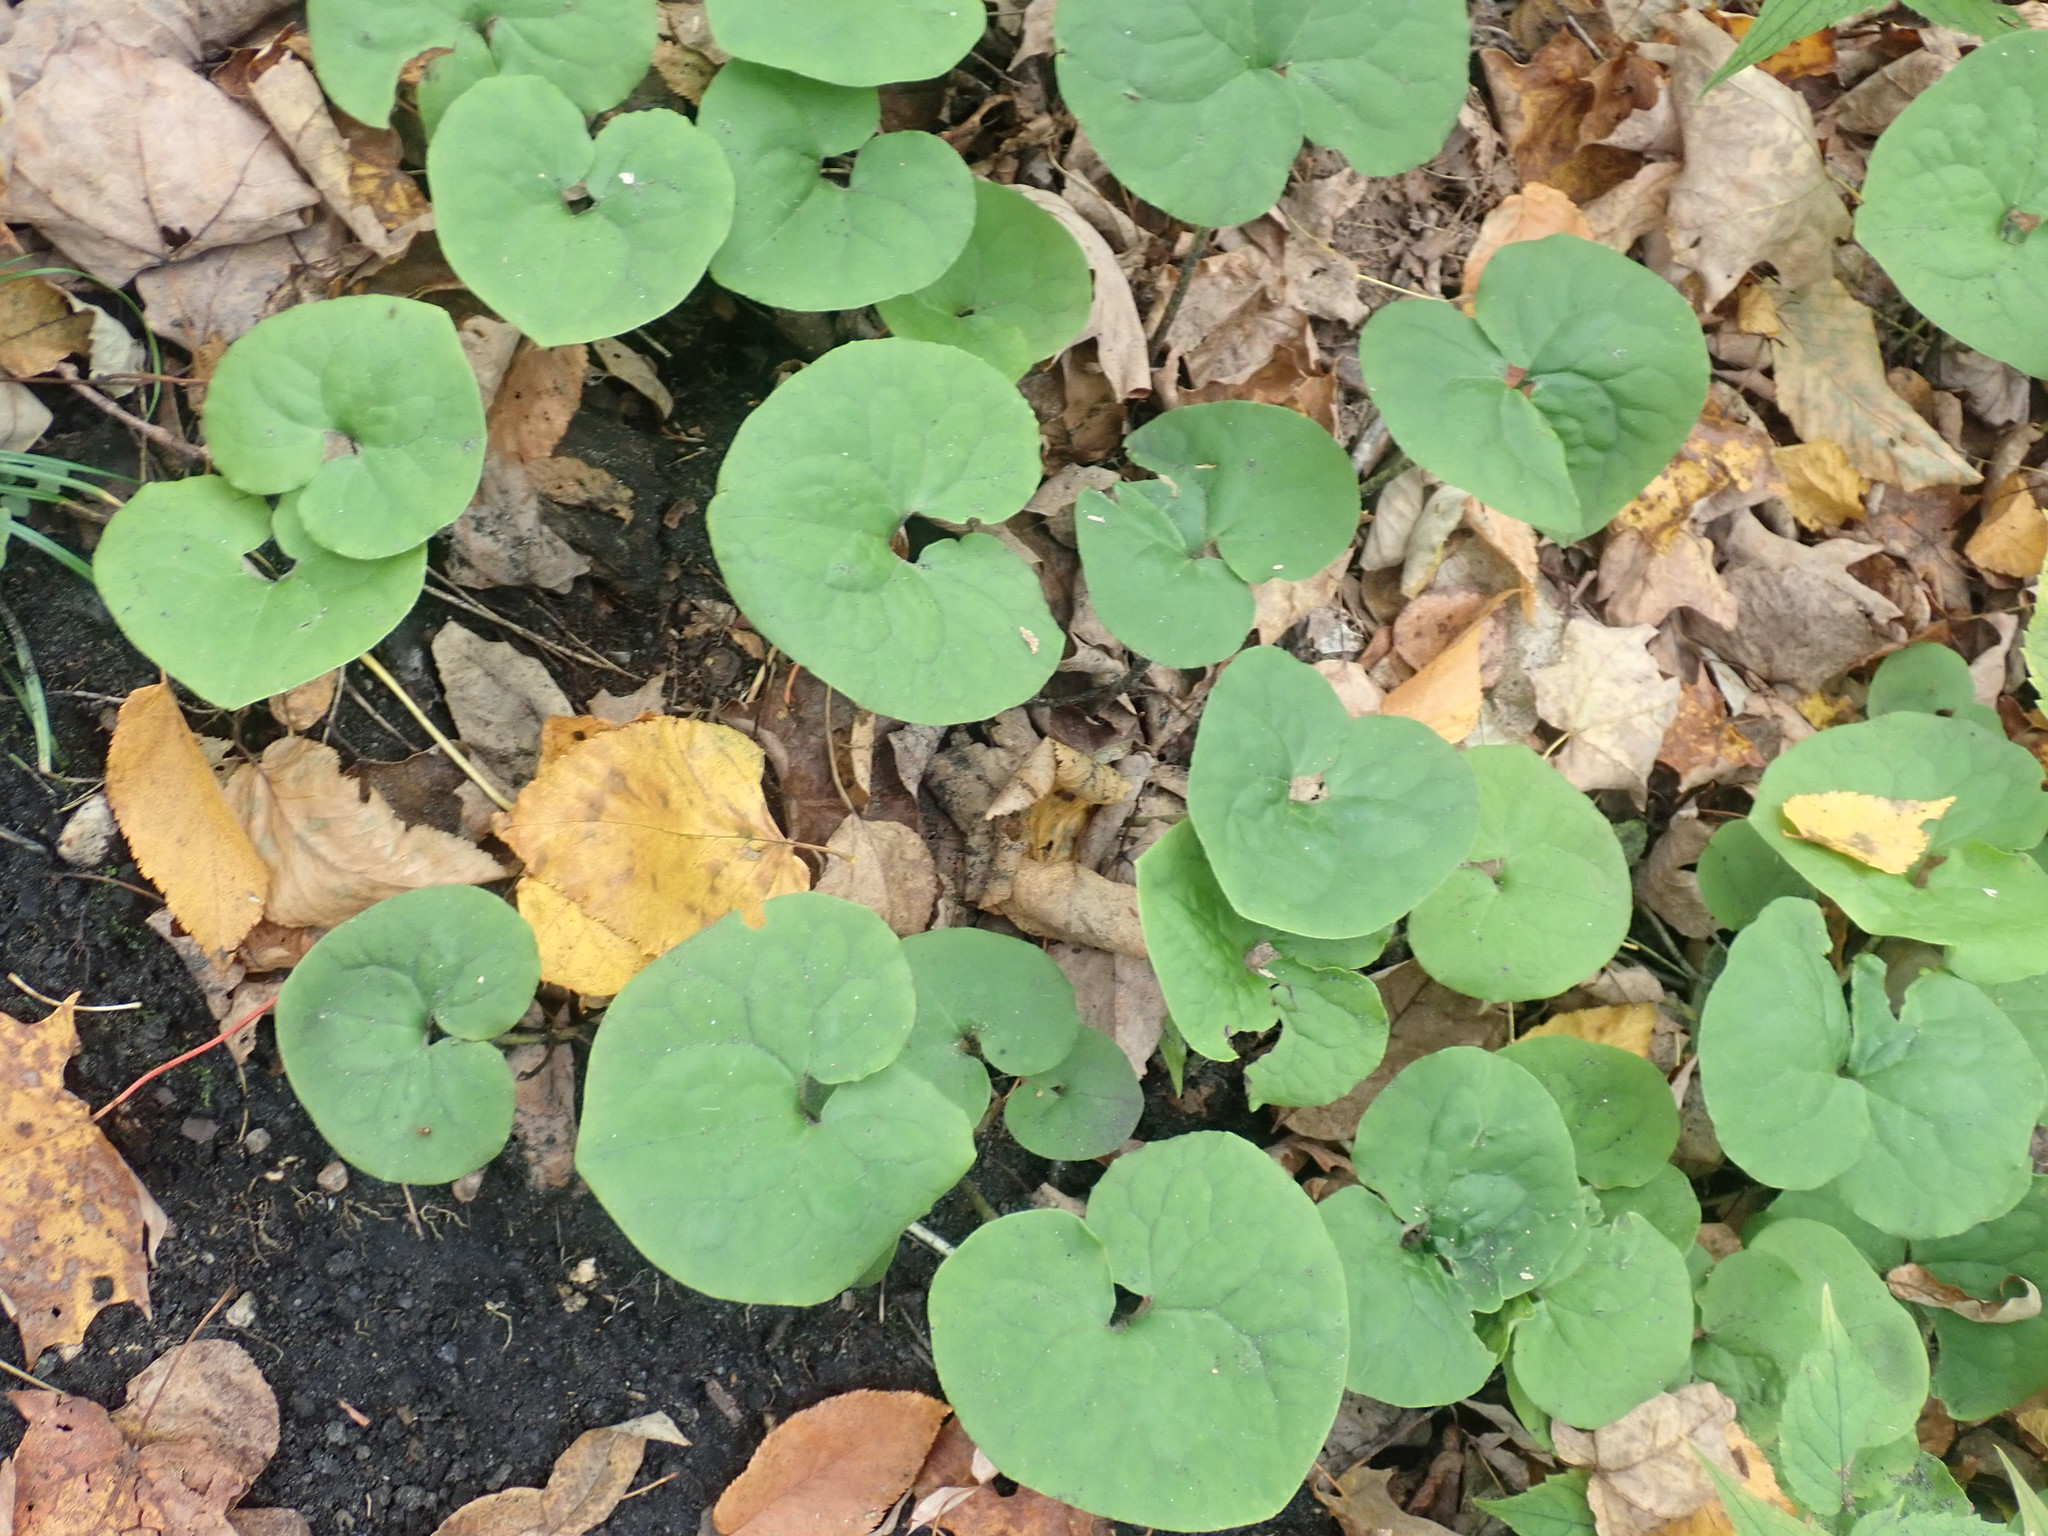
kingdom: Plantae
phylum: Tracheophyta
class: Magnoliopsida
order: Piperales
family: Aristolochiaceae
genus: Asarum
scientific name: Asarum canadense
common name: Wild ginger
